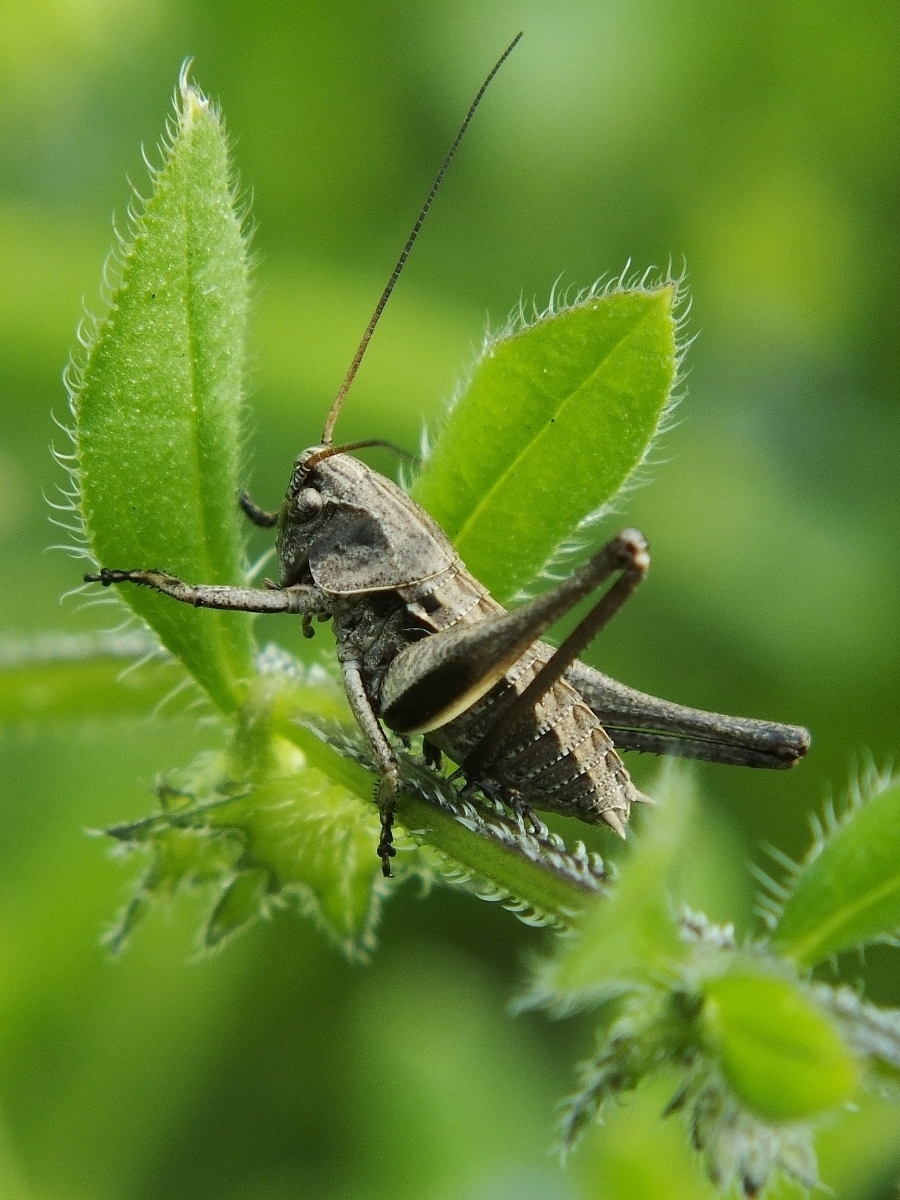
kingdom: Animalia
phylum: Arthropoda
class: Insecta
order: Orthoptera
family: Tettigoniidae
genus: Decticus
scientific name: Decticus verrucivorus
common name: Wart-biter
